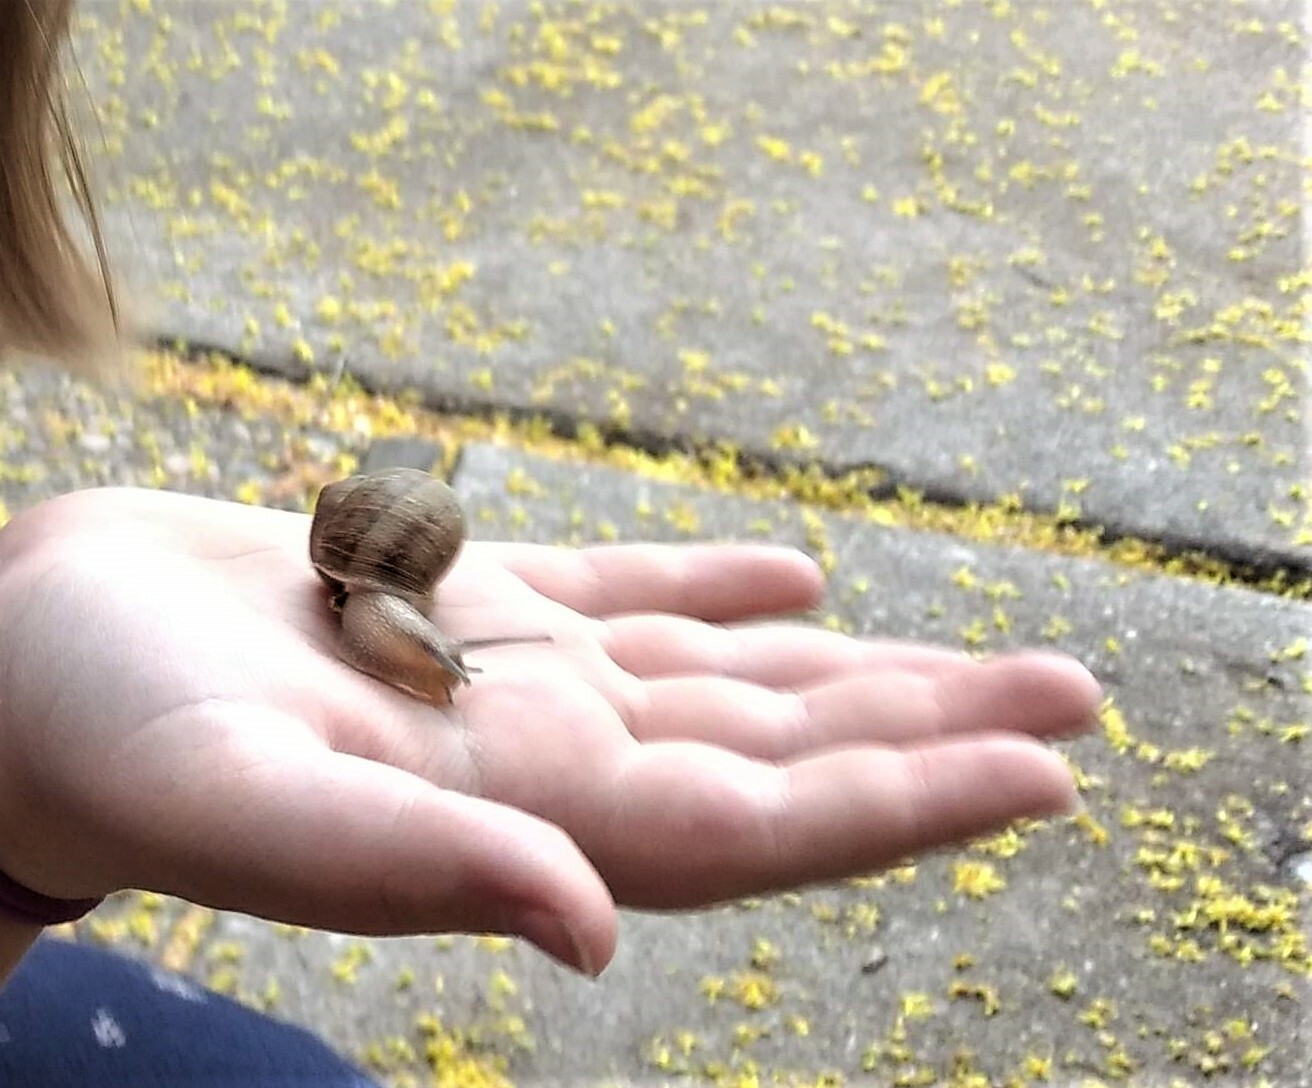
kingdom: Animalia
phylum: Mollusca
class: Gastropoda
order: Stylommatophora
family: Helicidae
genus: Cornu
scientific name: Cornu aspersum
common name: Brown garden snail
